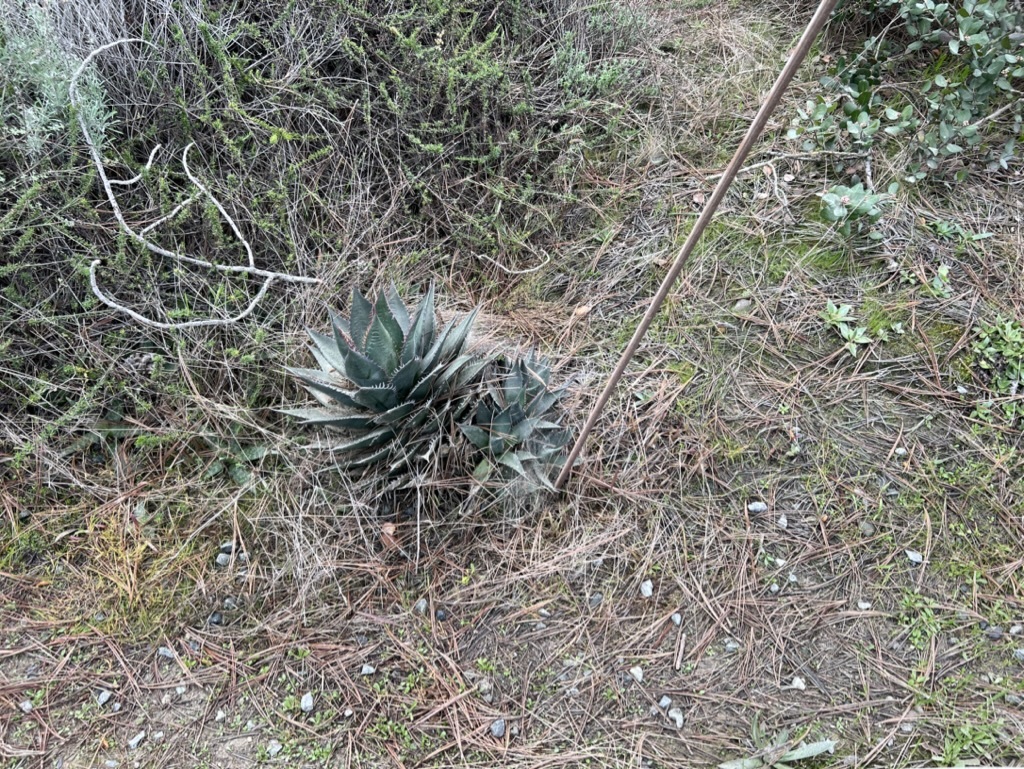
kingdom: Plantae
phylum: Tracheophyta
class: Liliopsida
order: Asparagales
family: Asparagaceae
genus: Agave
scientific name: Agave shawii
